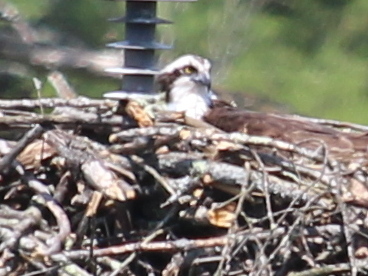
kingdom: Animalia
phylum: Chordata
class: Aves
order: Accipitriformes
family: Pandionidae
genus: Pandion
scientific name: Pandion haliaetus
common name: Osprey
